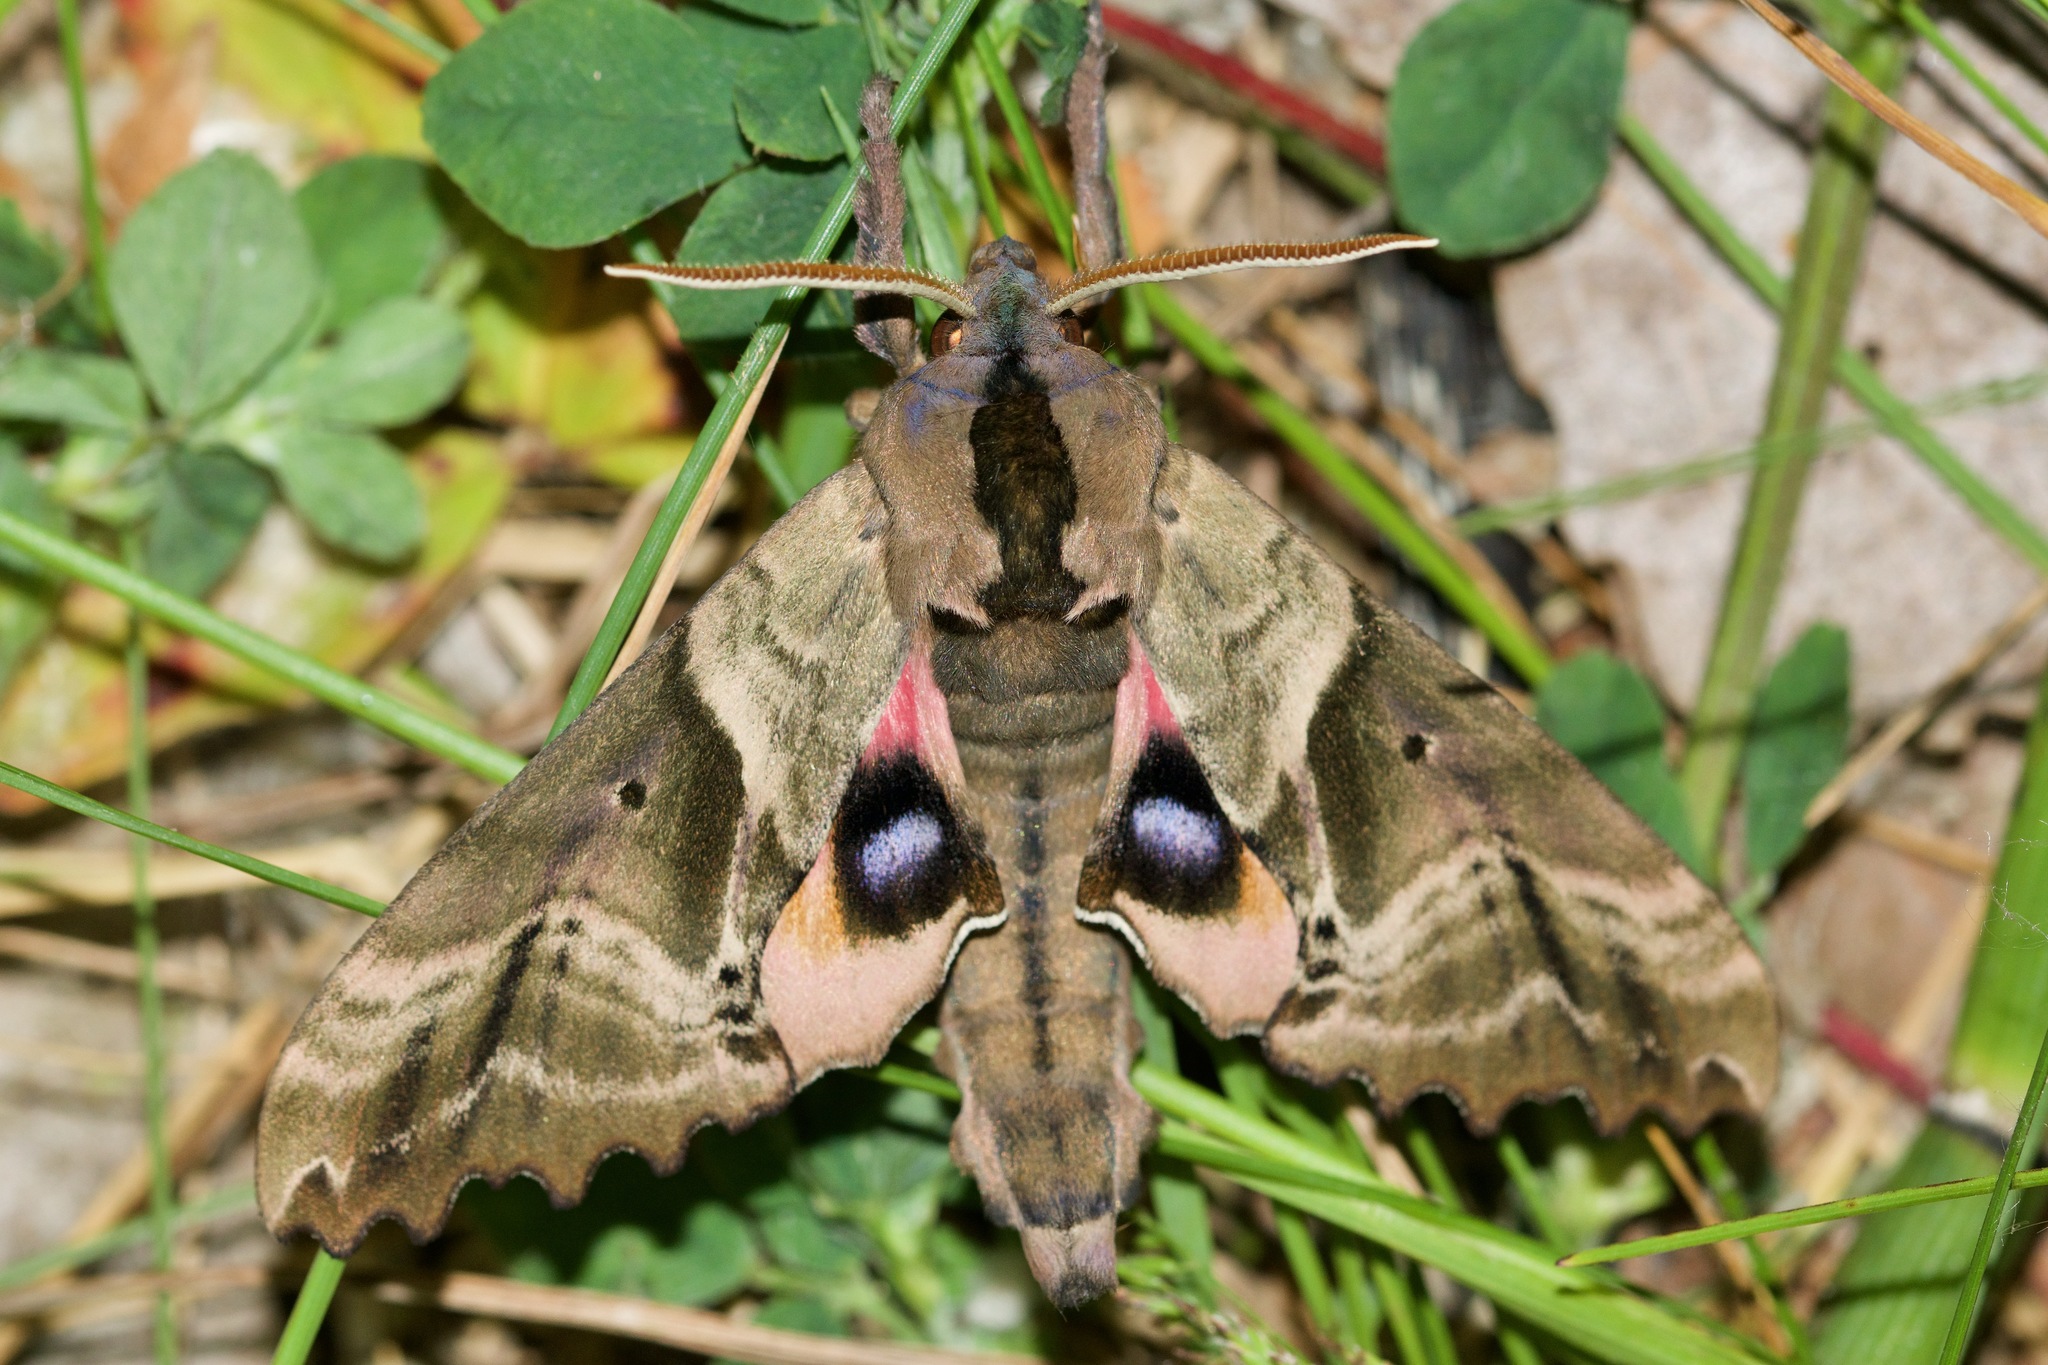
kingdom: Animalia
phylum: Arthropoda
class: Insecta
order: Lepidoptera
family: Sphingidae
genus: Paonias
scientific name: Paonias excaecata
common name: Blind-eyed sphinx
